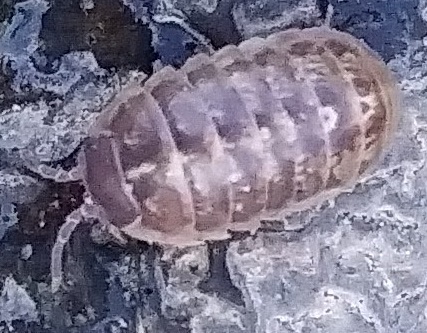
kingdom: Animalia
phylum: Arthropoda
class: Malacostraca
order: Isopoda
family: Armadillidiidae
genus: Armadillidium
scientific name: Armadillidium vulgare
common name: Common pill woodlouse
